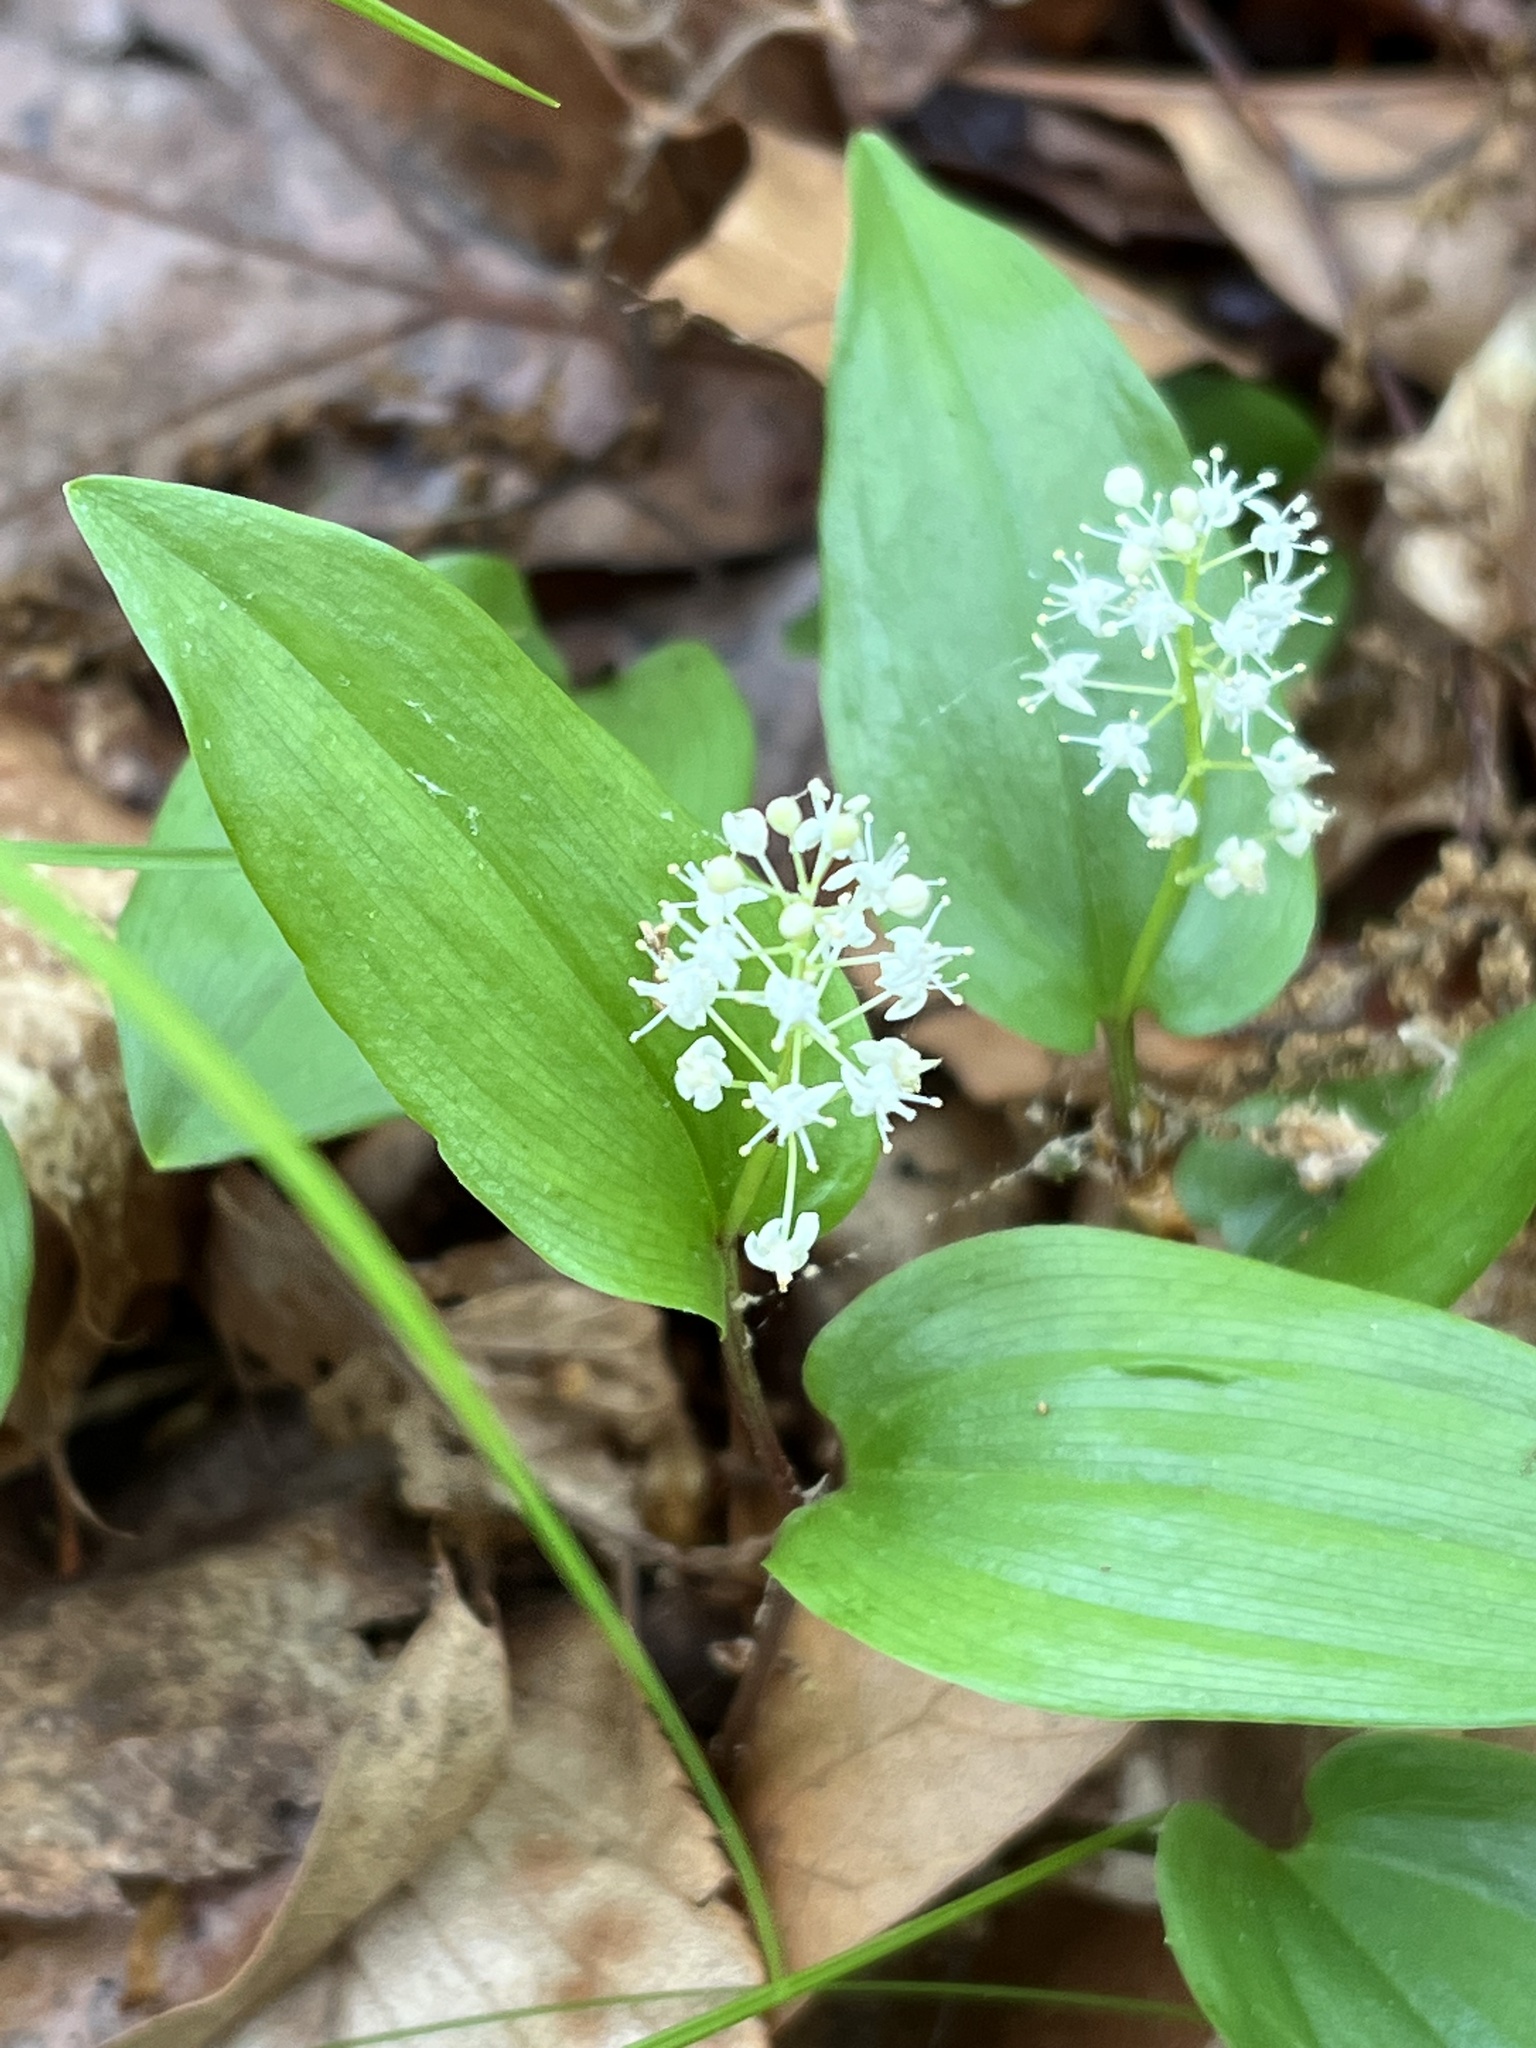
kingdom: Plantae
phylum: Tracheophyta
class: Liliopsida
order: Asparagales
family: Asparagaceae
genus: Maianthemum
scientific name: Maianthemum canadense
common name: False lily-of-the-valley
